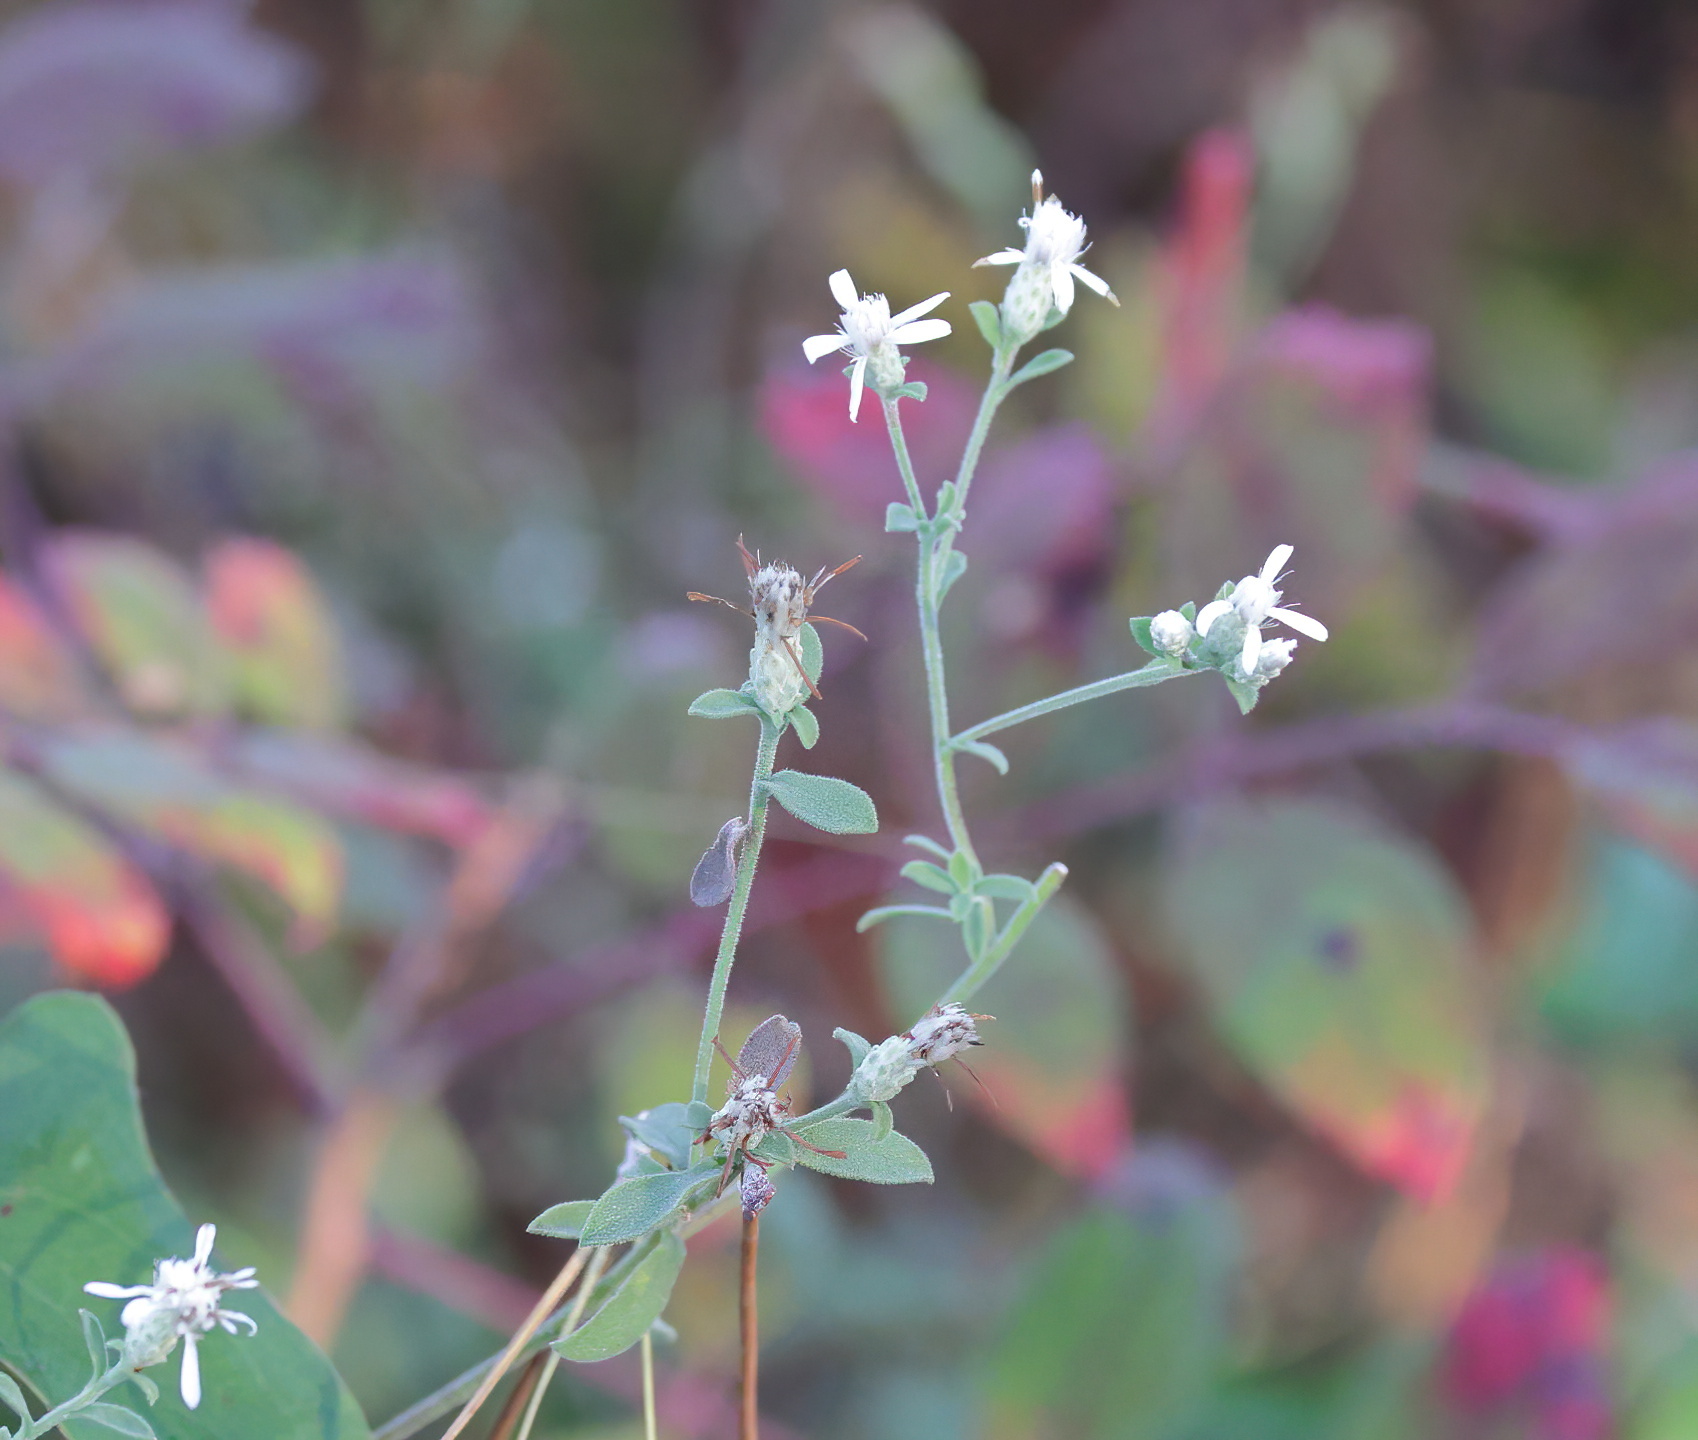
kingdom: Plantae
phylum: Tracheophyta
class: Magnoliopsida
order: Asterales
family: Asteraceae
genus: Sericocarpus
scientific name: Sericocarpus tortifolius
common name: Dixie aster
